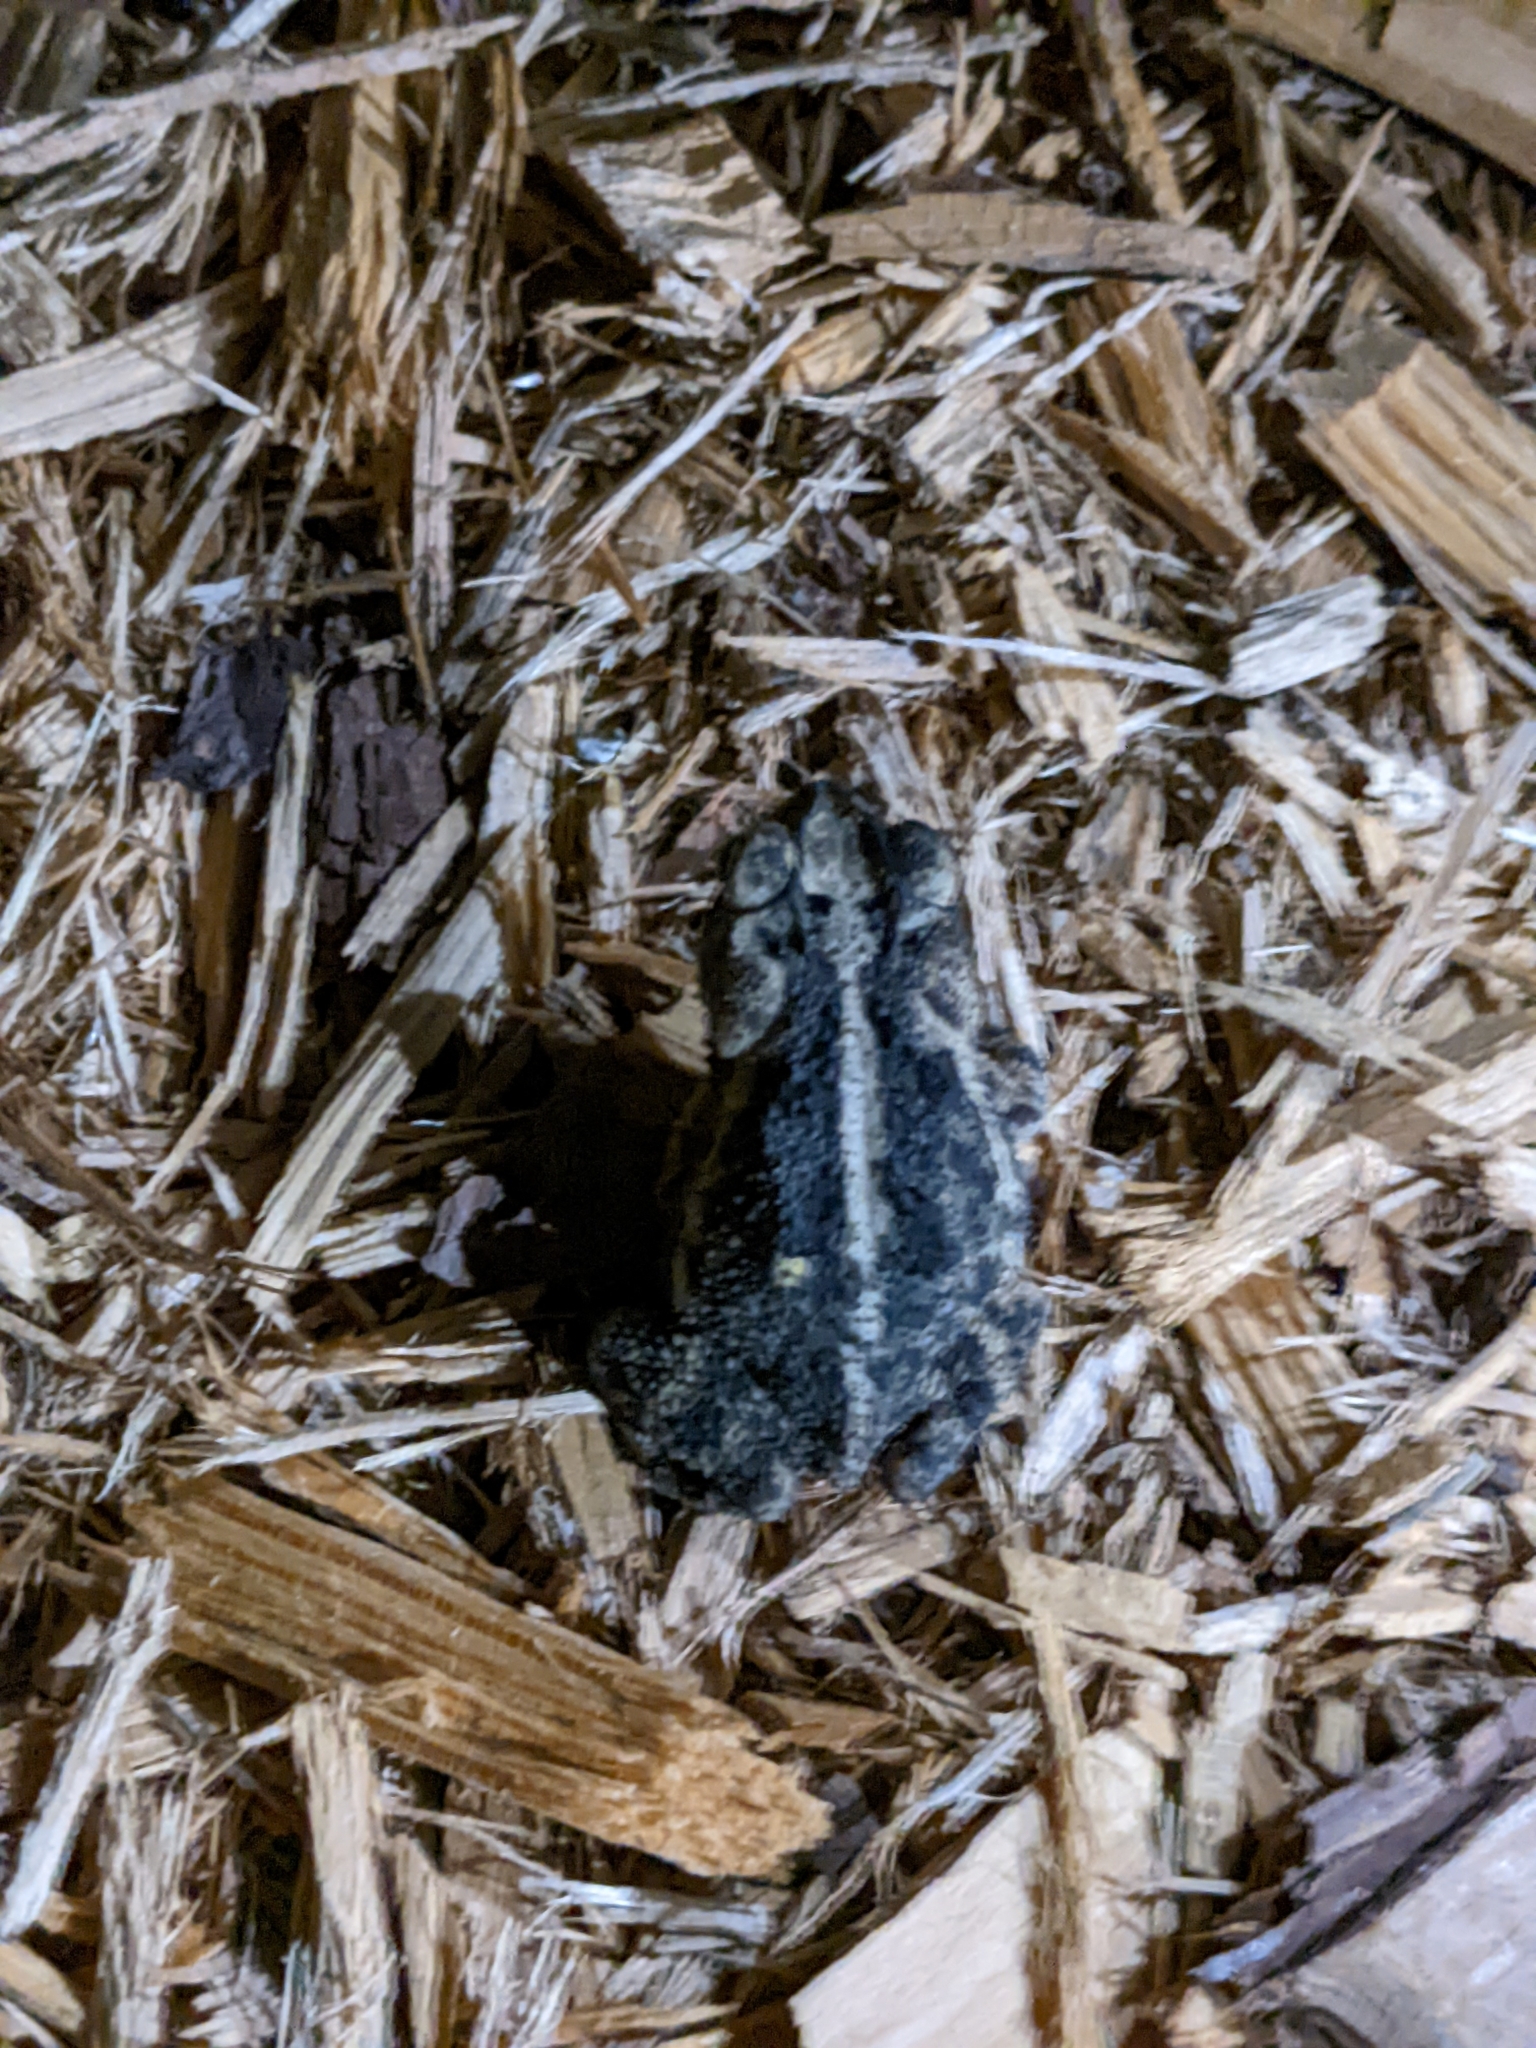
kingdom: Animalia
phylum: Chordata
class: Amphibia
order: Anura
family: Bufonidae
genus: Incilius
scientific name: Incilius nebulifer
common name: Gulf coast toad
